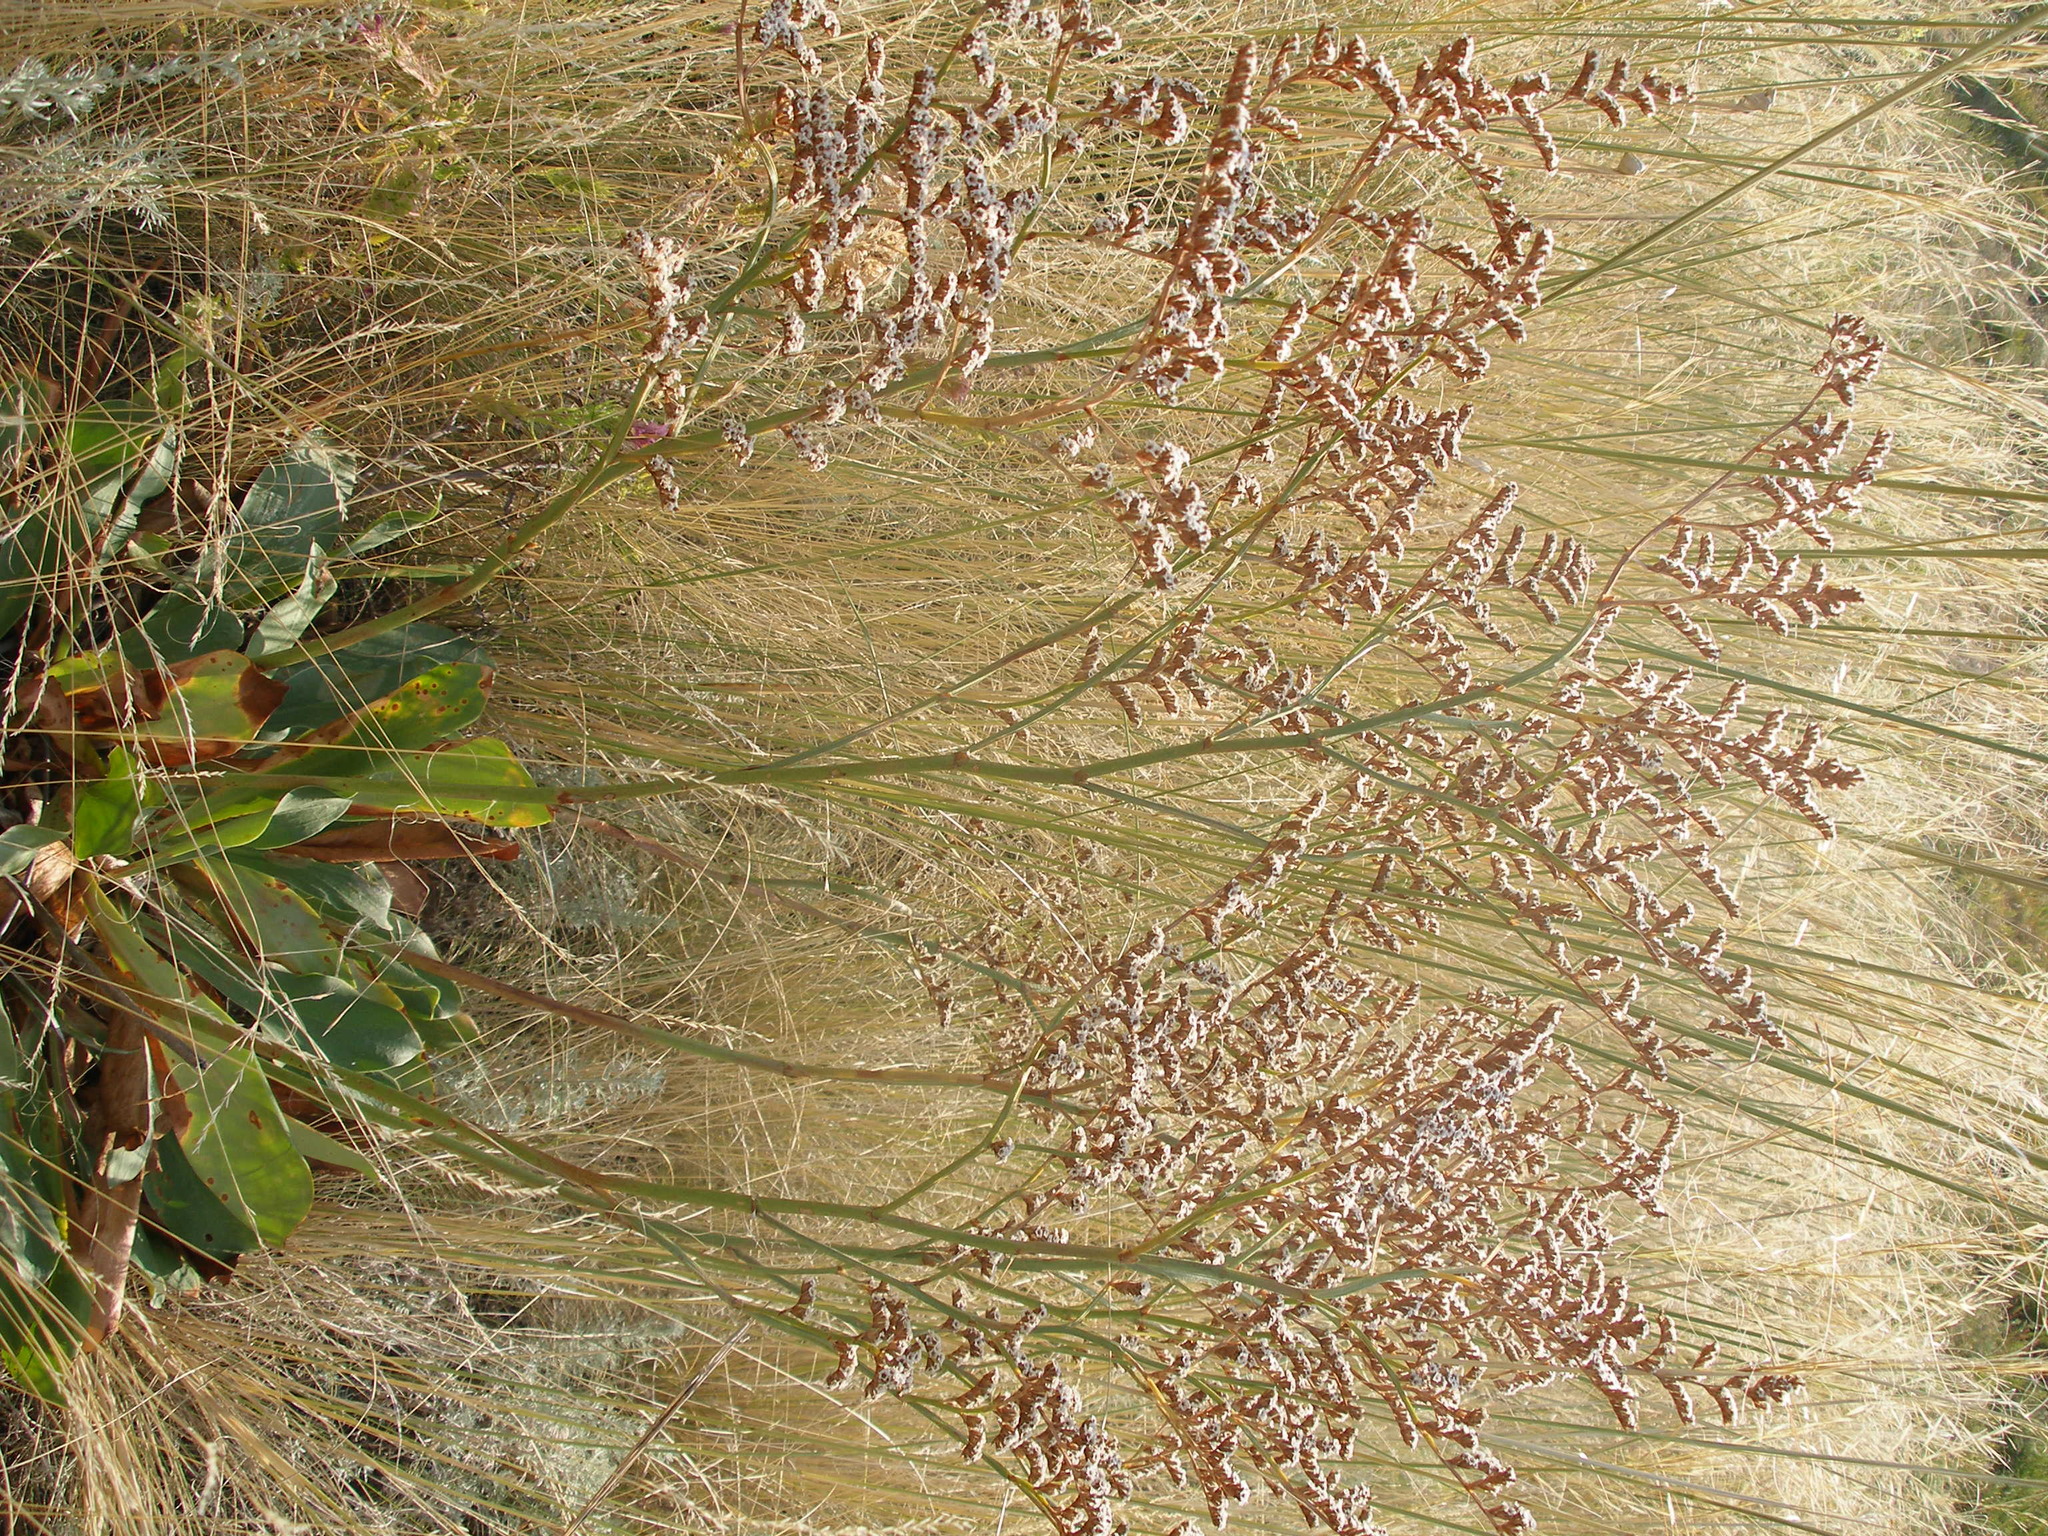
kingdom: Plantae
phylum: Tracheophyta
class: Magnoliopsida
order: Caryophyllales
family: Plumbaginaceae
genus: Goniolimon
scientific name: Goniolimon elatum
